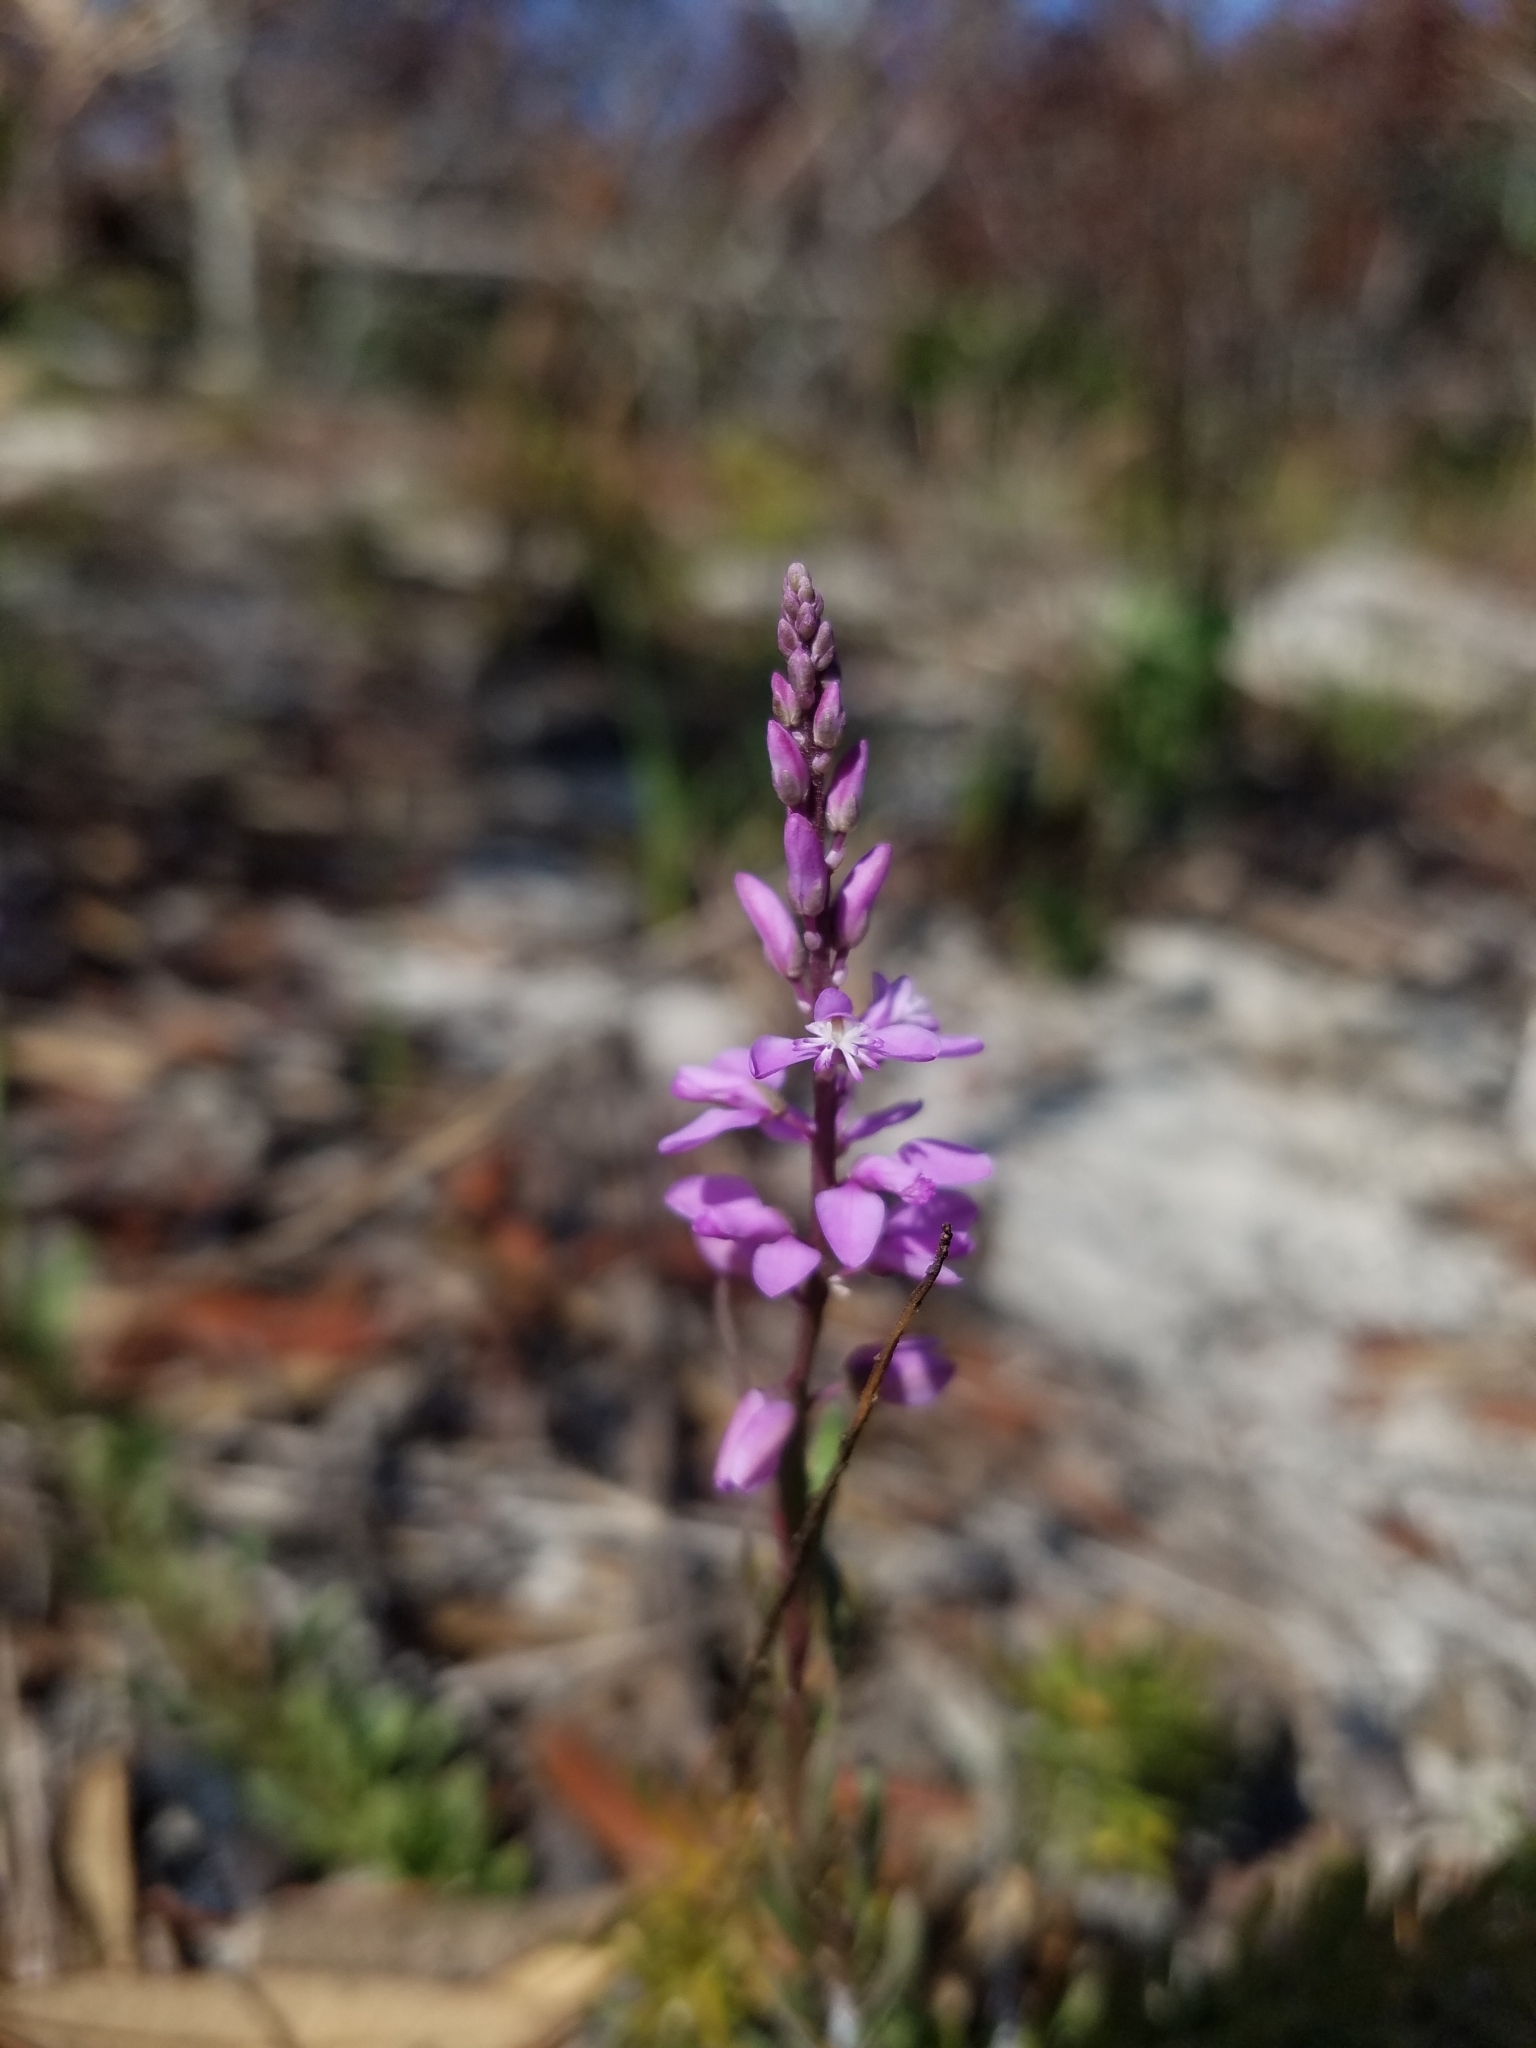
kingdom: Plantae
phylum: Tracheophyta
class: Magnoliopsida
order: Fabales
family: Polygalaceae
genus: Polygala
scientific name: Polygala lewtonii
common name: Lewton's polygala
